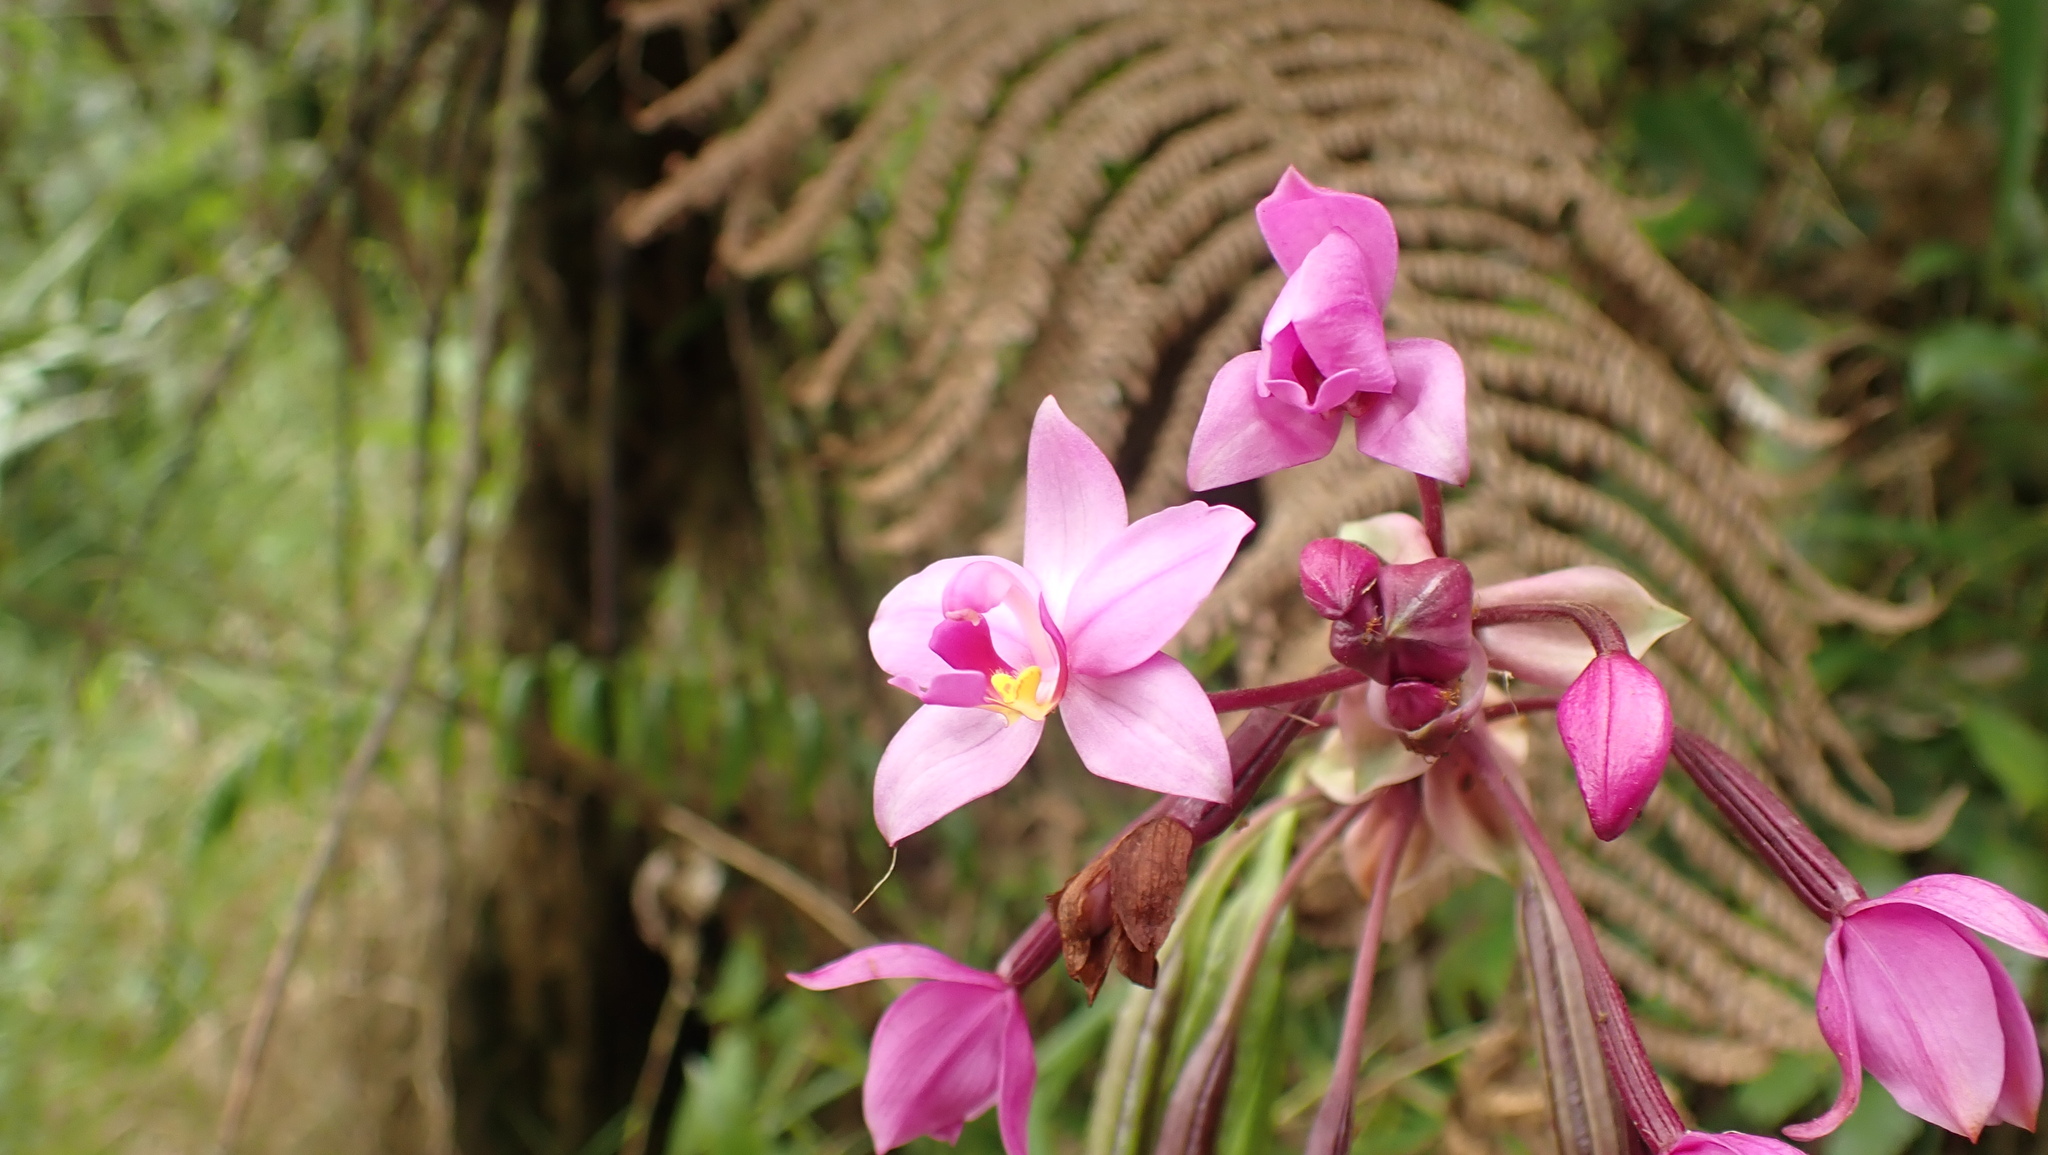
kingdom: Plantae
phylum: Tracheophyta
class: Liliopsida
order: Asparagales
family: Orchidaceae
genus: Spathoglottis
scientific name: Spathoglottis plicata
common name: Philippine ground orchid
